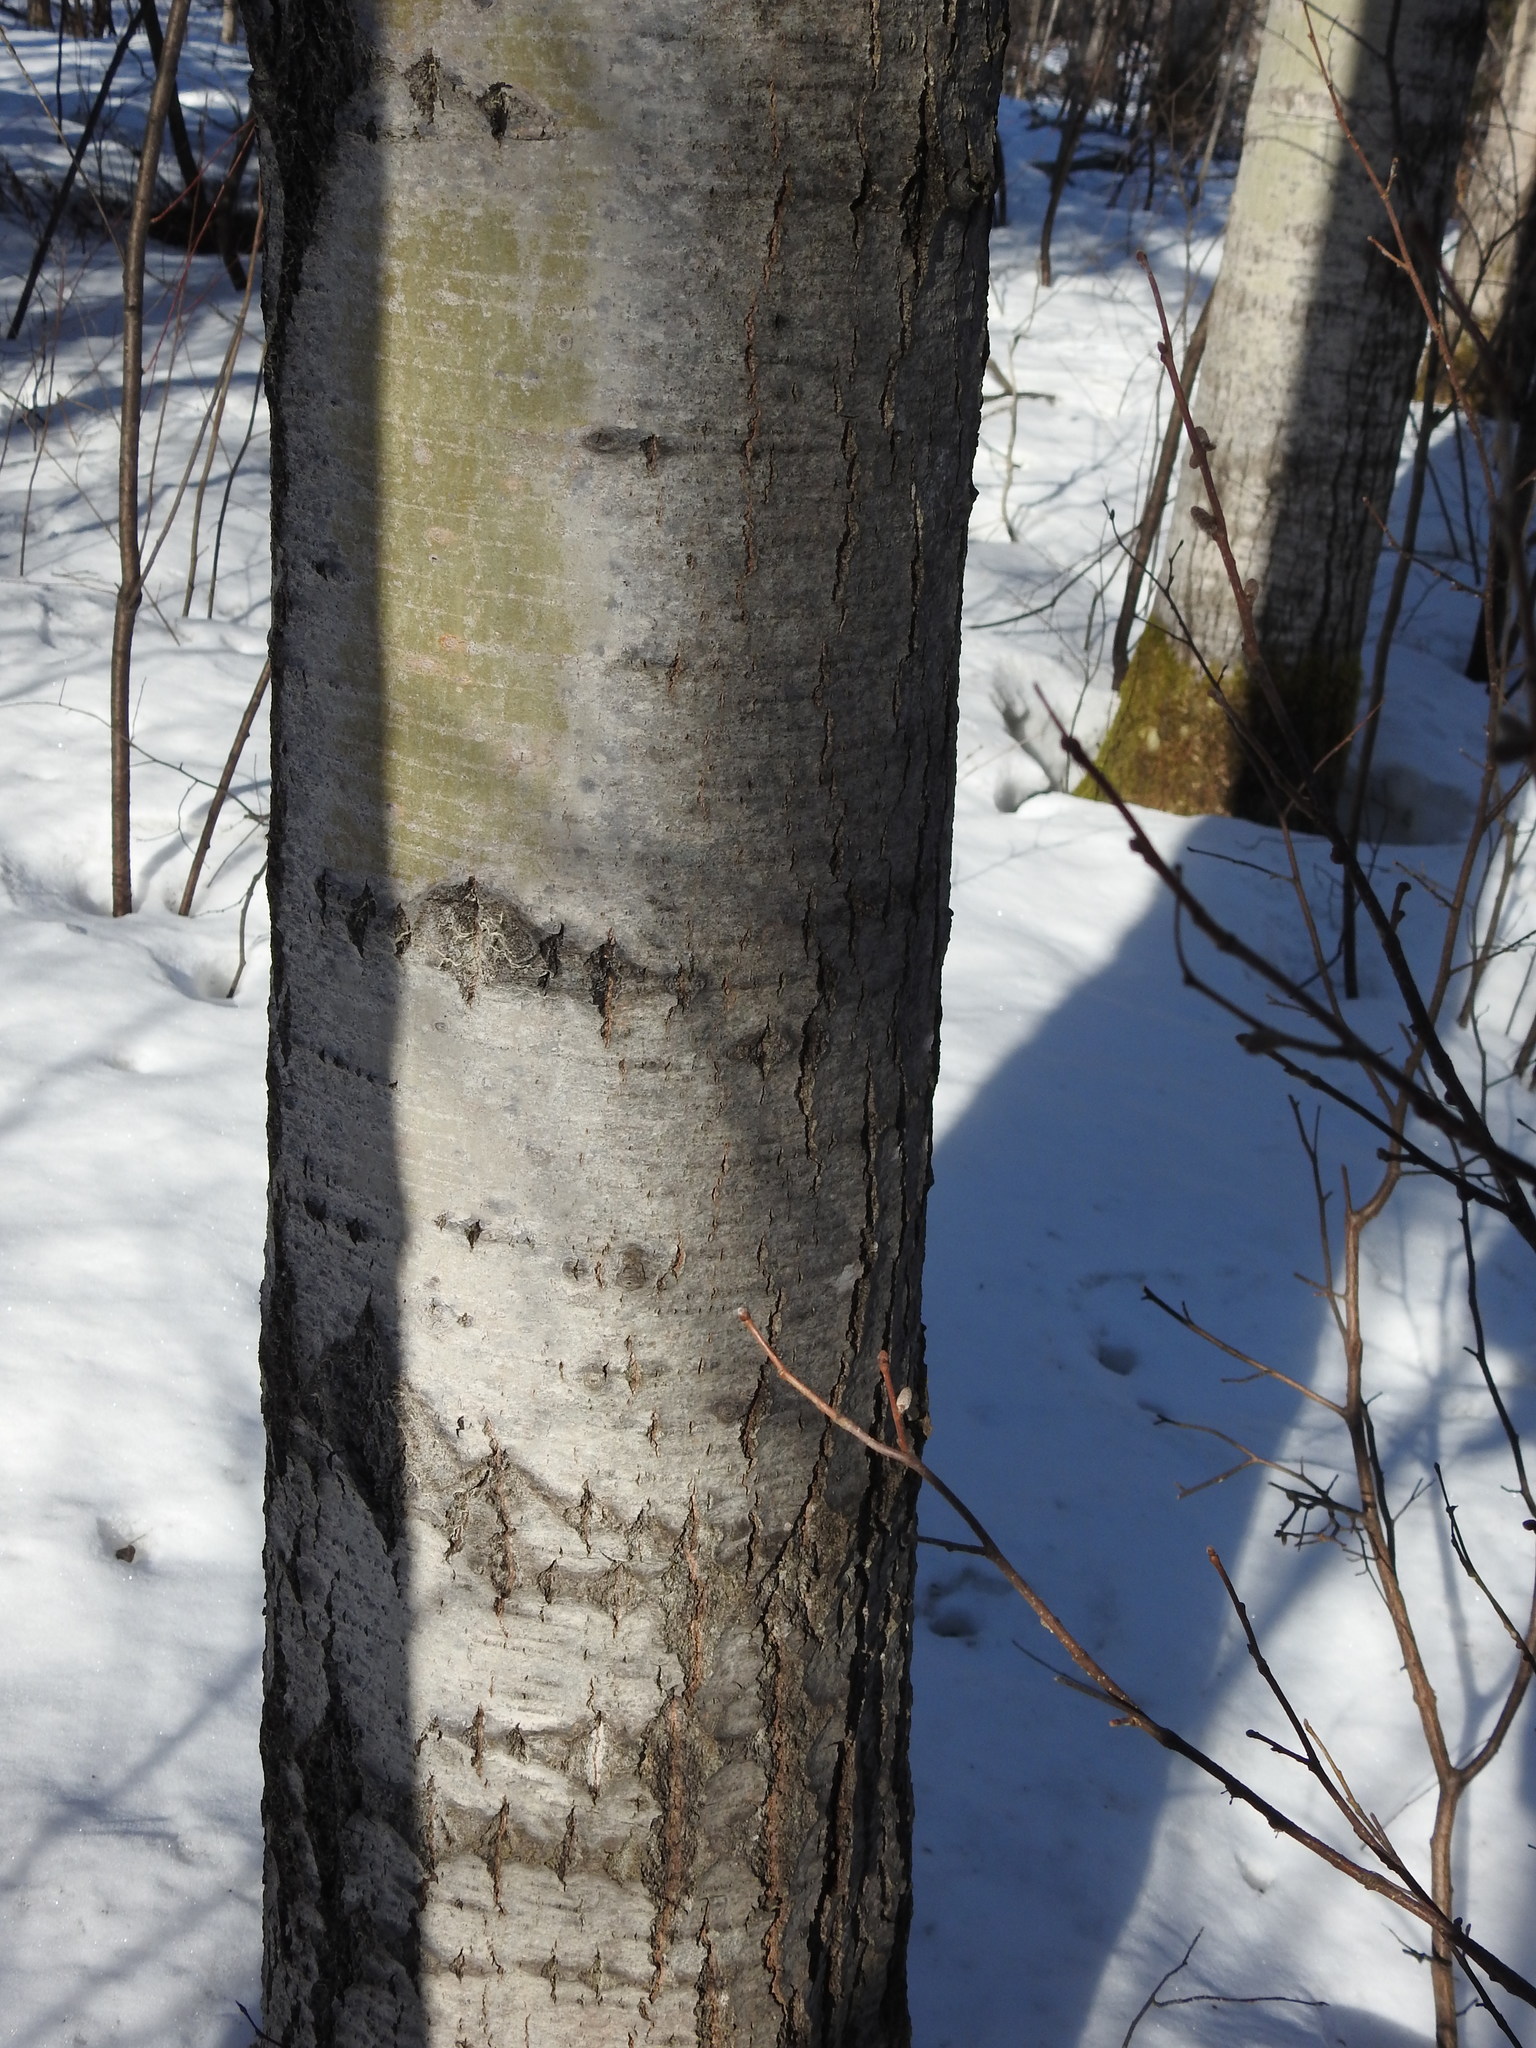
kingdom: Plantae
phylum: Tracheophyta
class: Magnoliopsida
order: Malpighiales
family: Salicaceae
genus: Populus
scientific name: Populus tremuloides
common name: Quaking aspen
